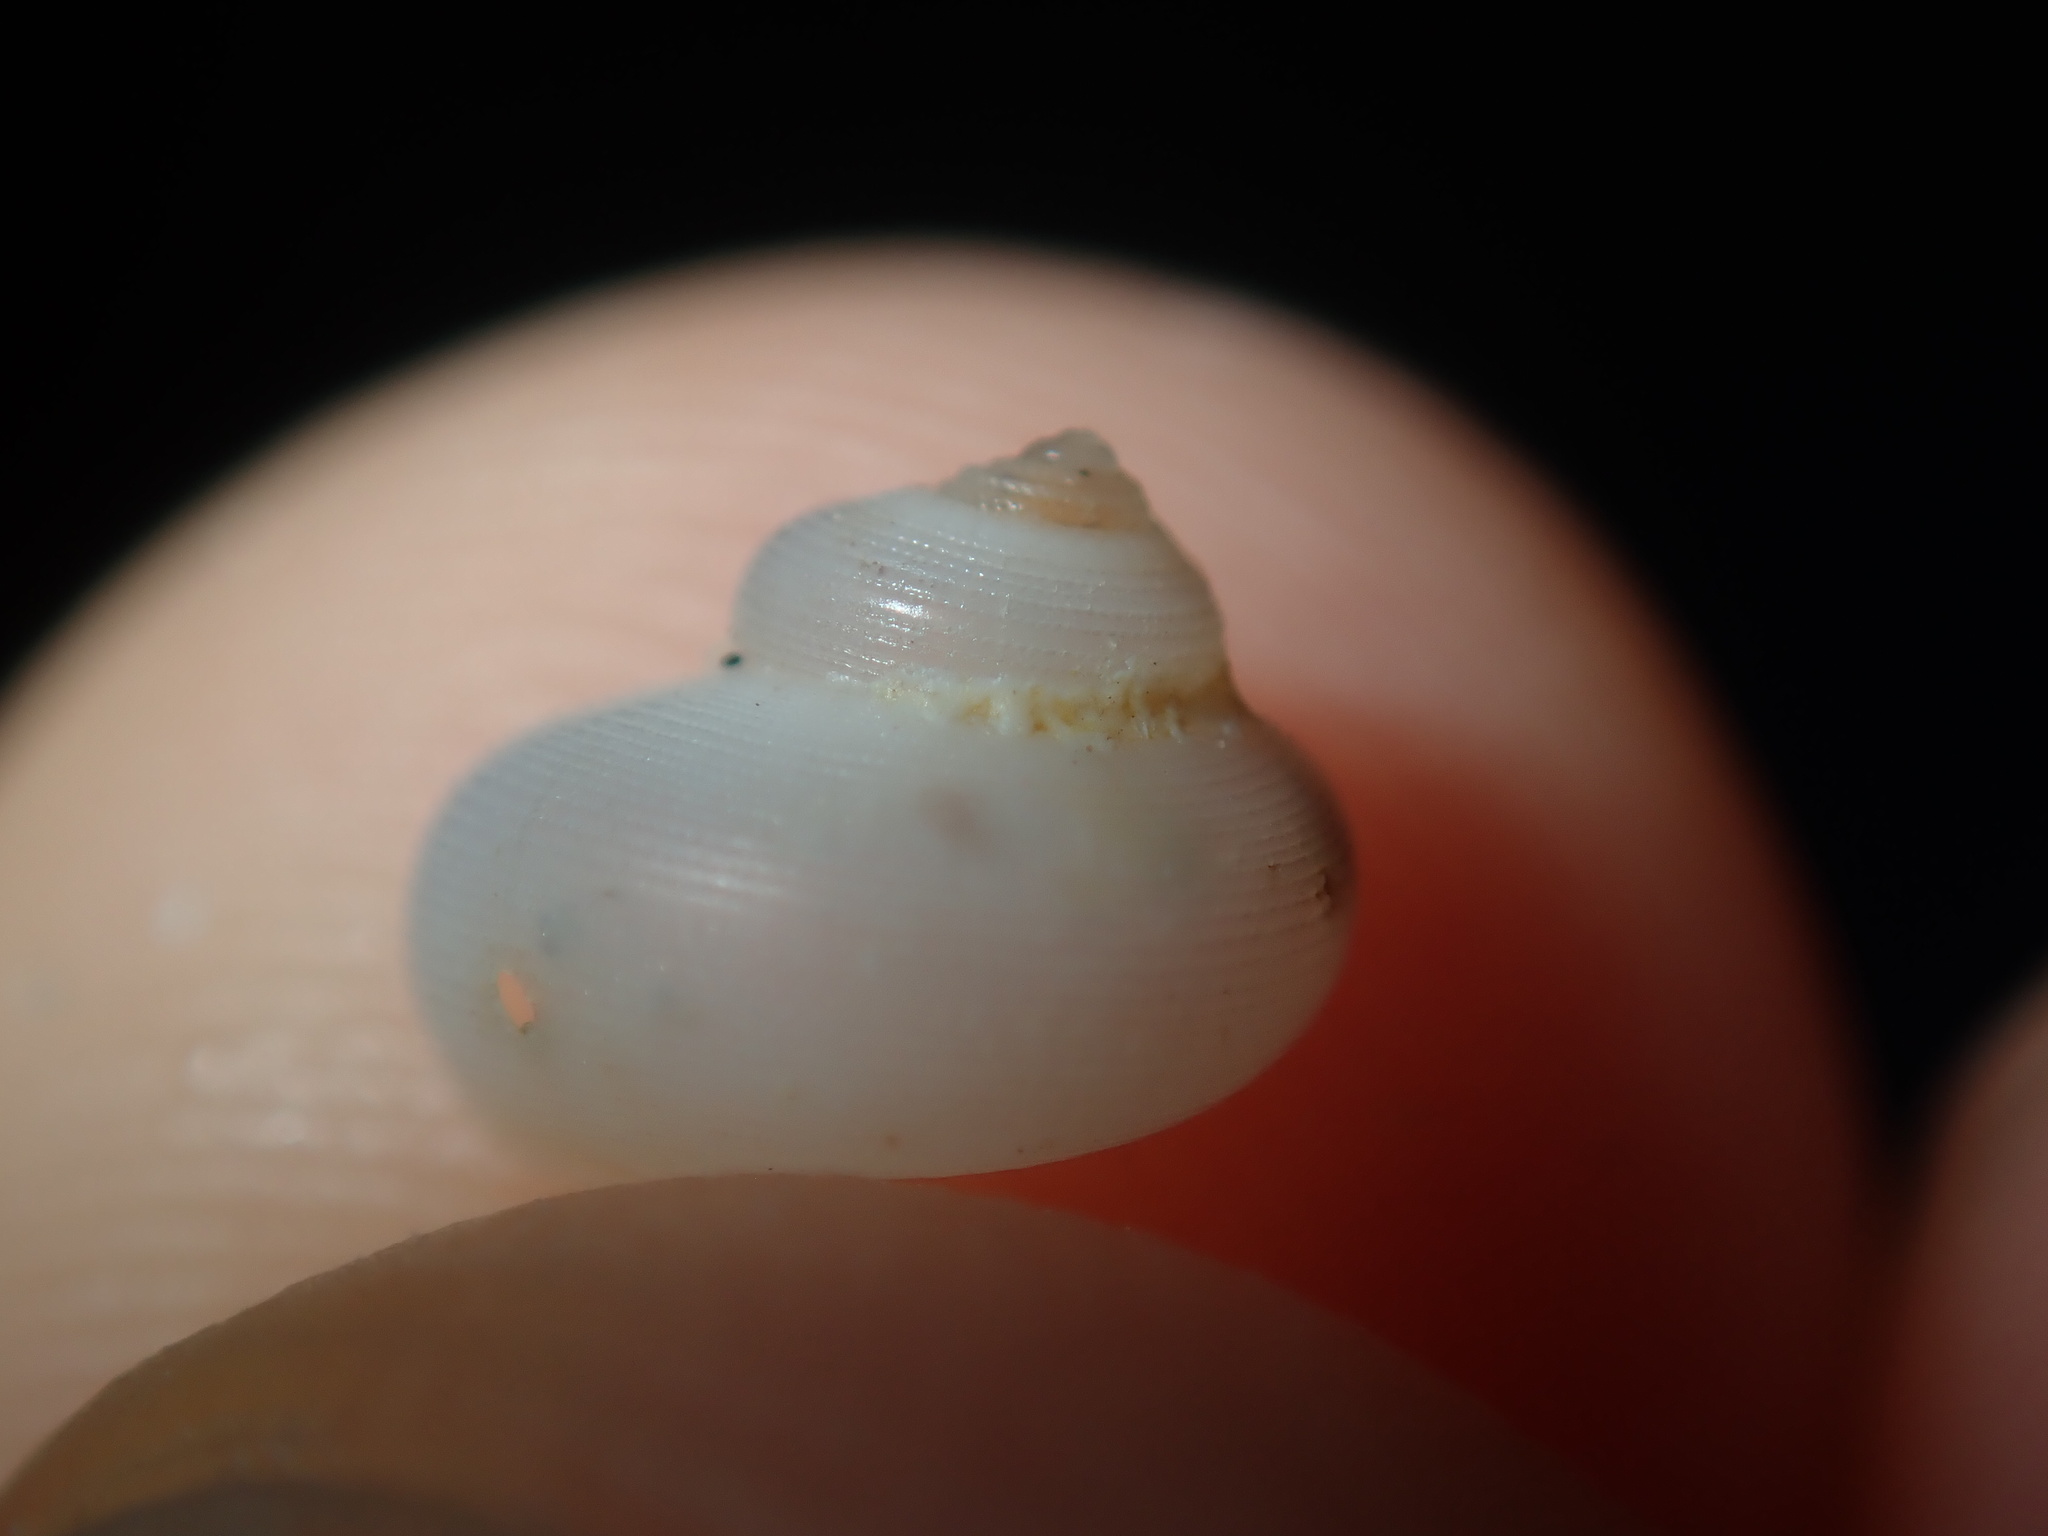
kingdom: Animalia
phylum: Mollusca
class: Gastropoda
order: Trochida
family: Conradiidae
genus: Crosseola
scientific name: Crosseola concinna
